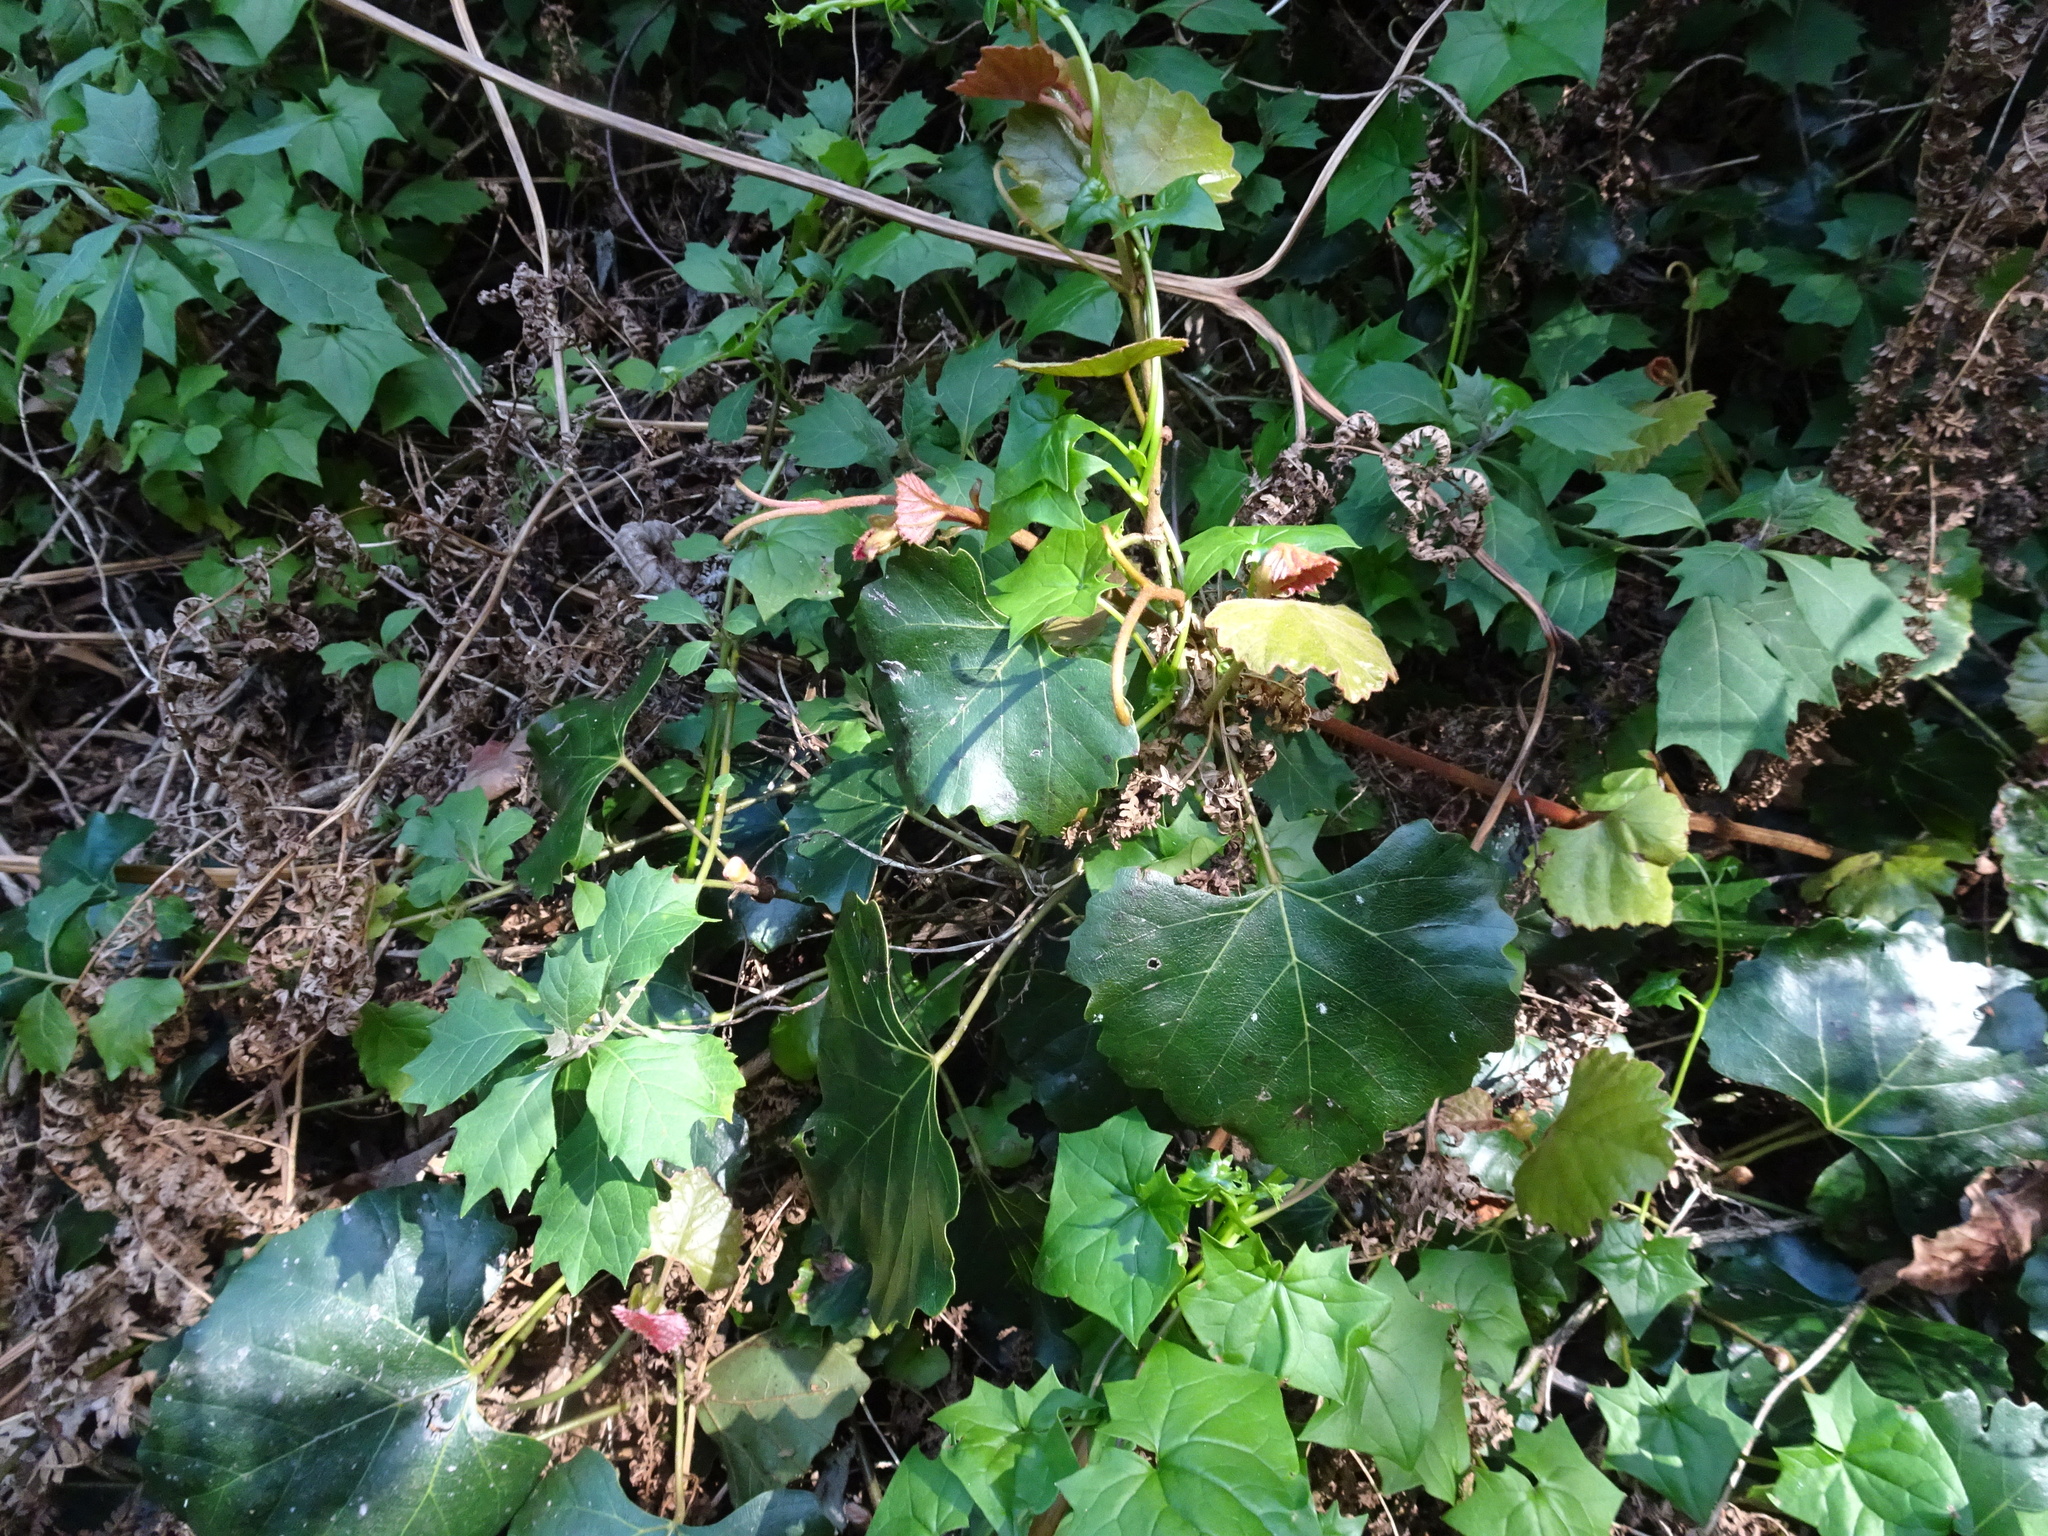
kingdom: Plantae
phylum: Tracheophyta
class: Magnoliopsida
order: Vitales
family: Vitaceae
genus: Rhoicissus
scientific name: Rhoicissus tomentosa
